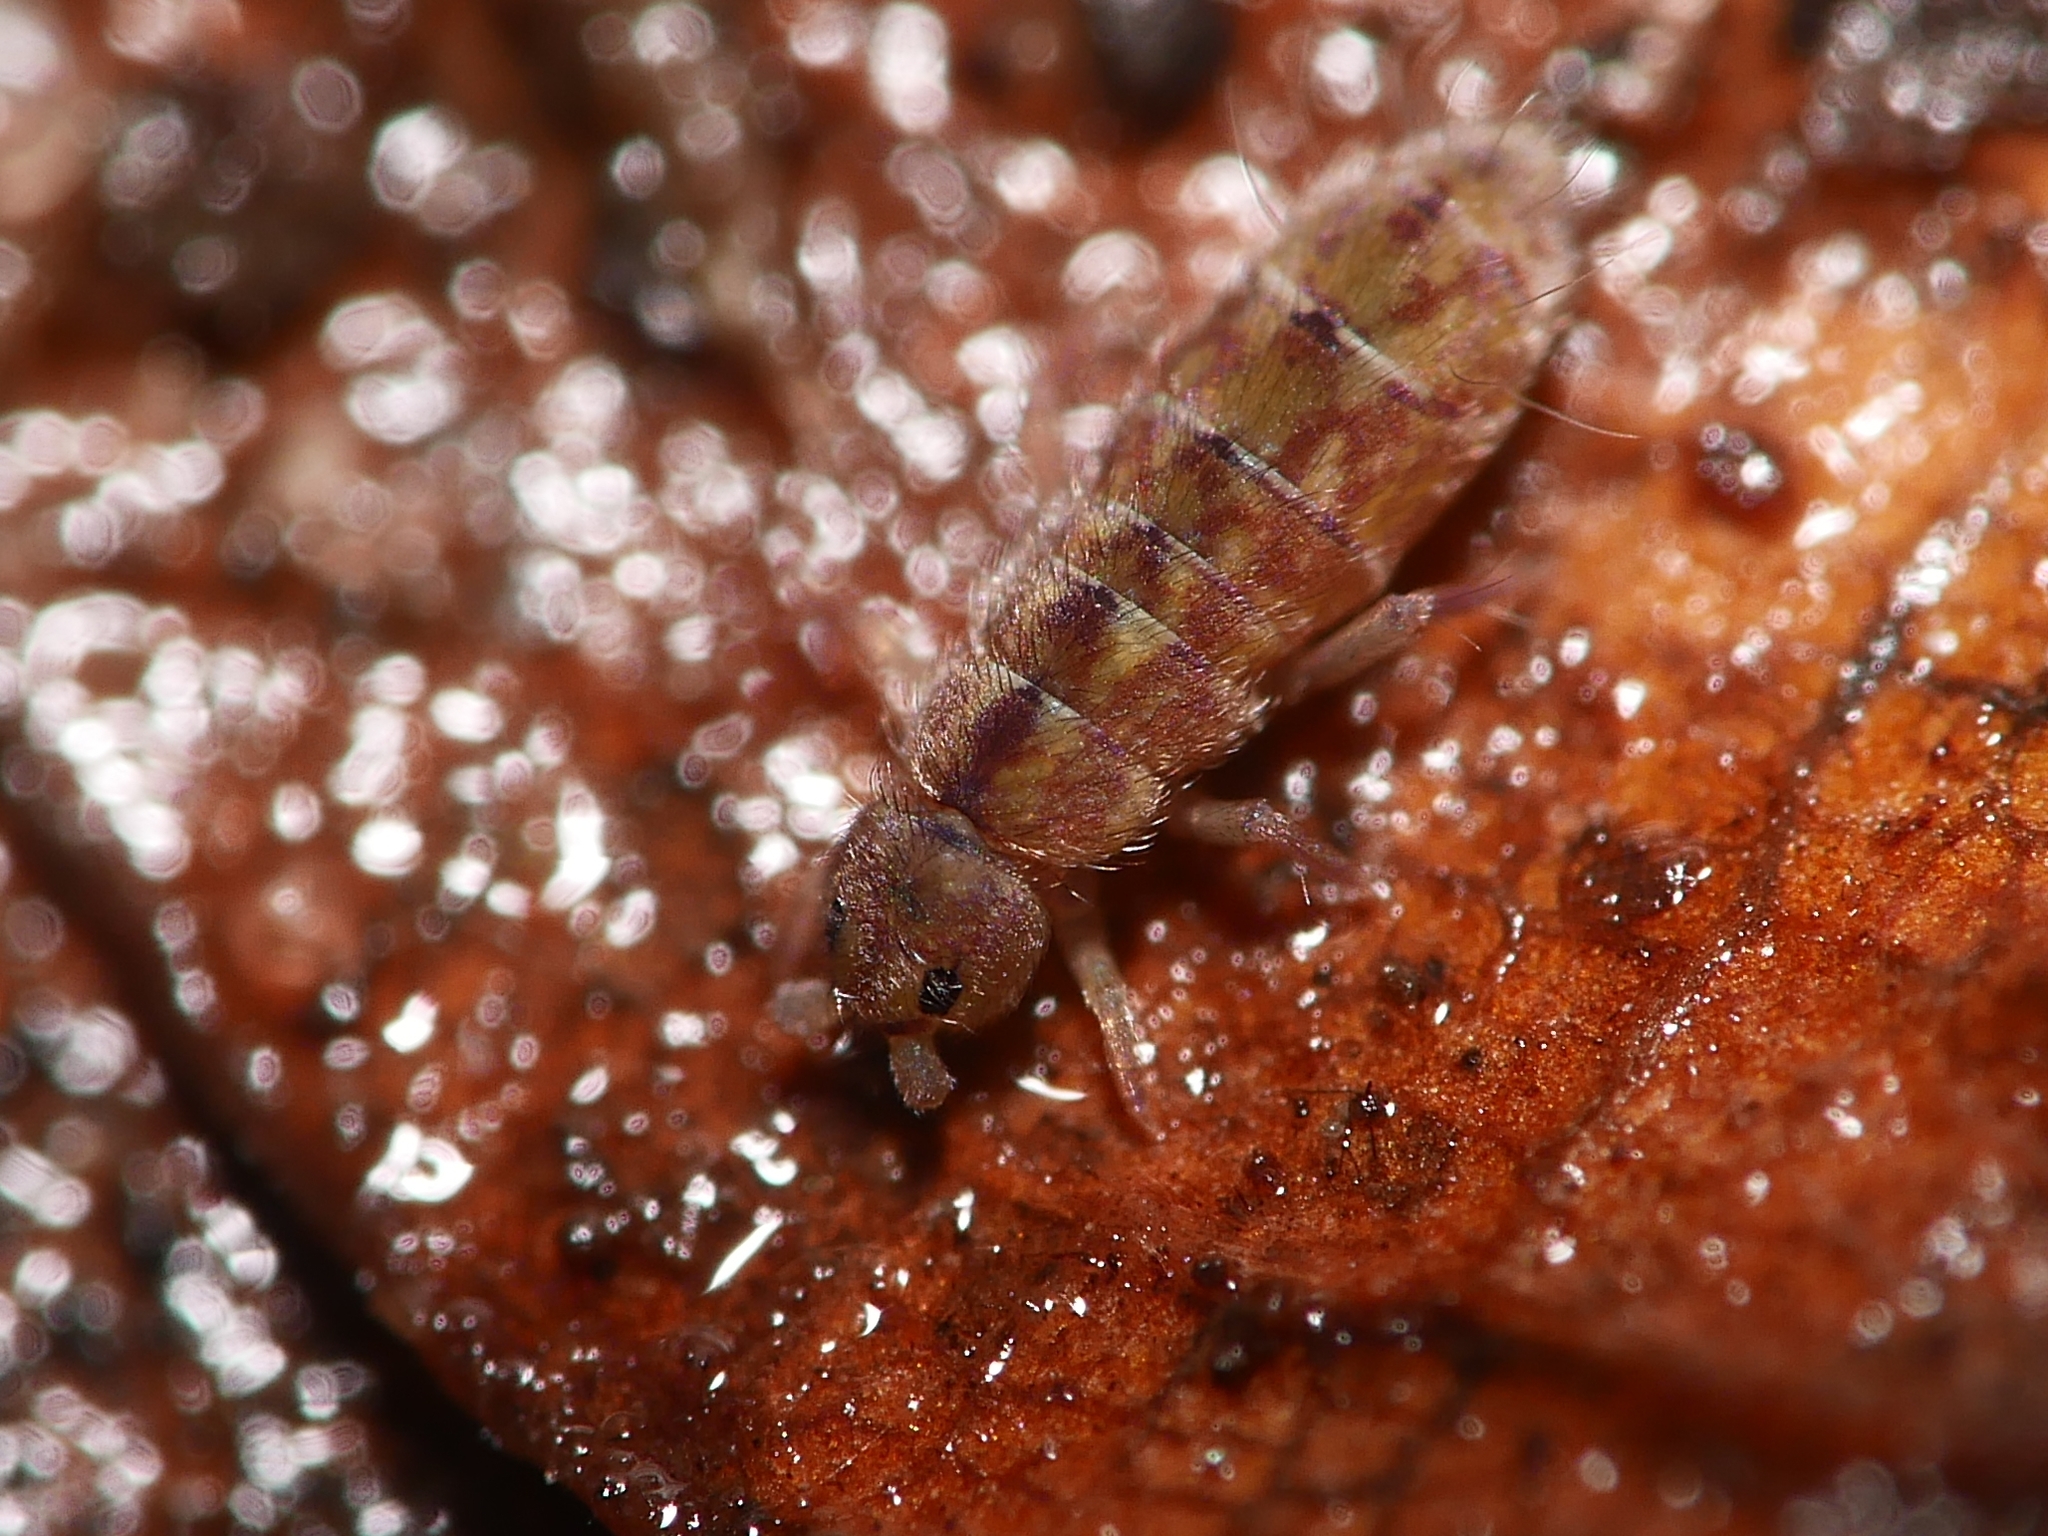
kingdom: Animalia
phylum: Arthropoda
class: Collembola
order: Entomobryomorpha
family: Isotomidae
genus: Isotomurus
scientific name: Isotomurus maculatus
